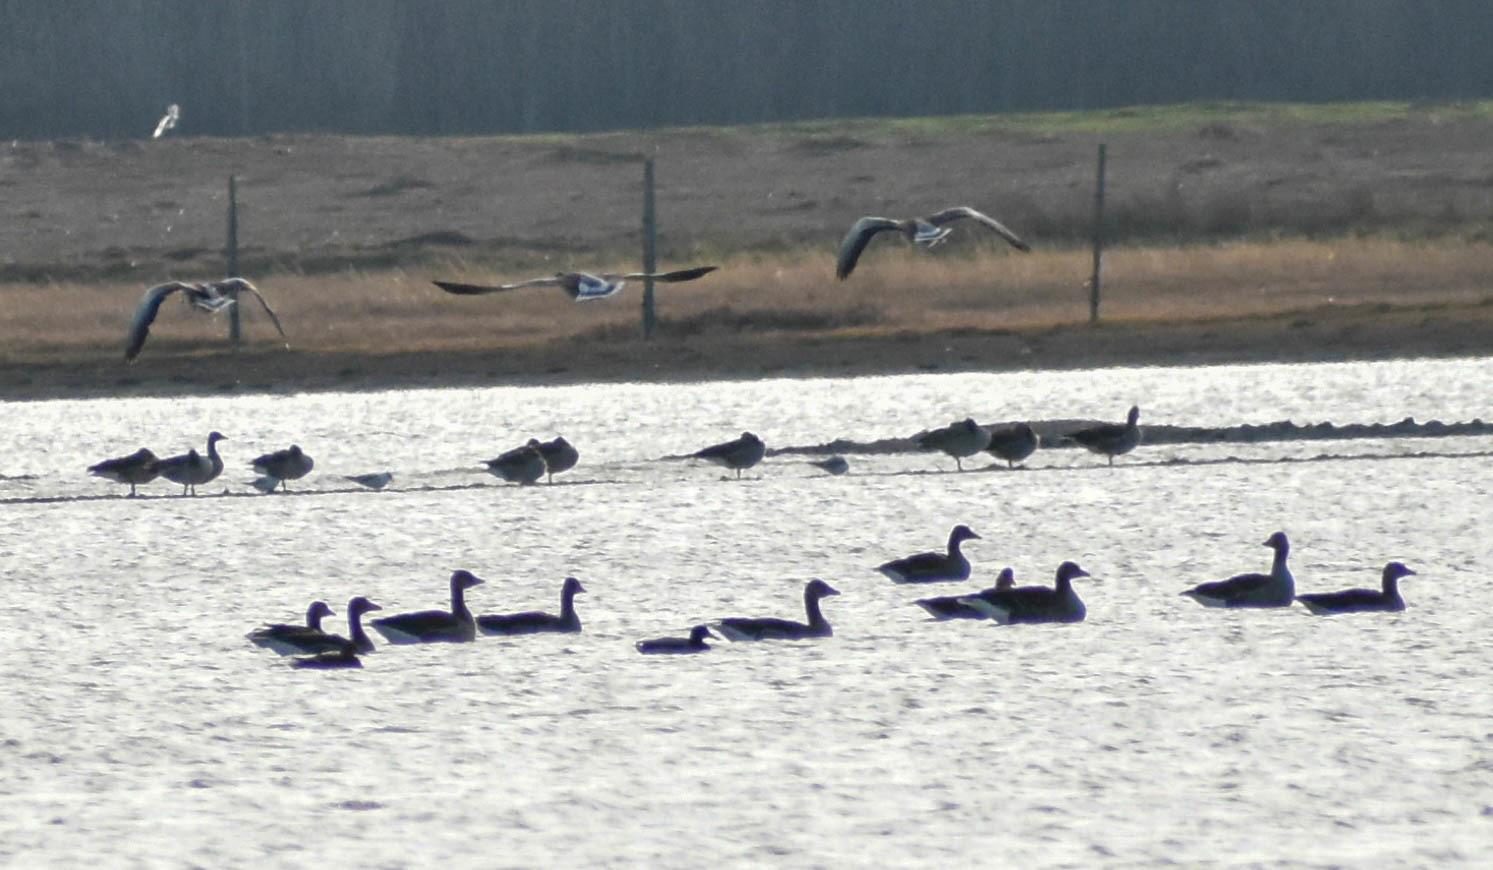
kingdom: Animalia
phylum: Chordata
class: Aves
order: Anseriformes
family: Anatidae
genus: Anser
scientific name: Anser anser
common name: Greylag goose
